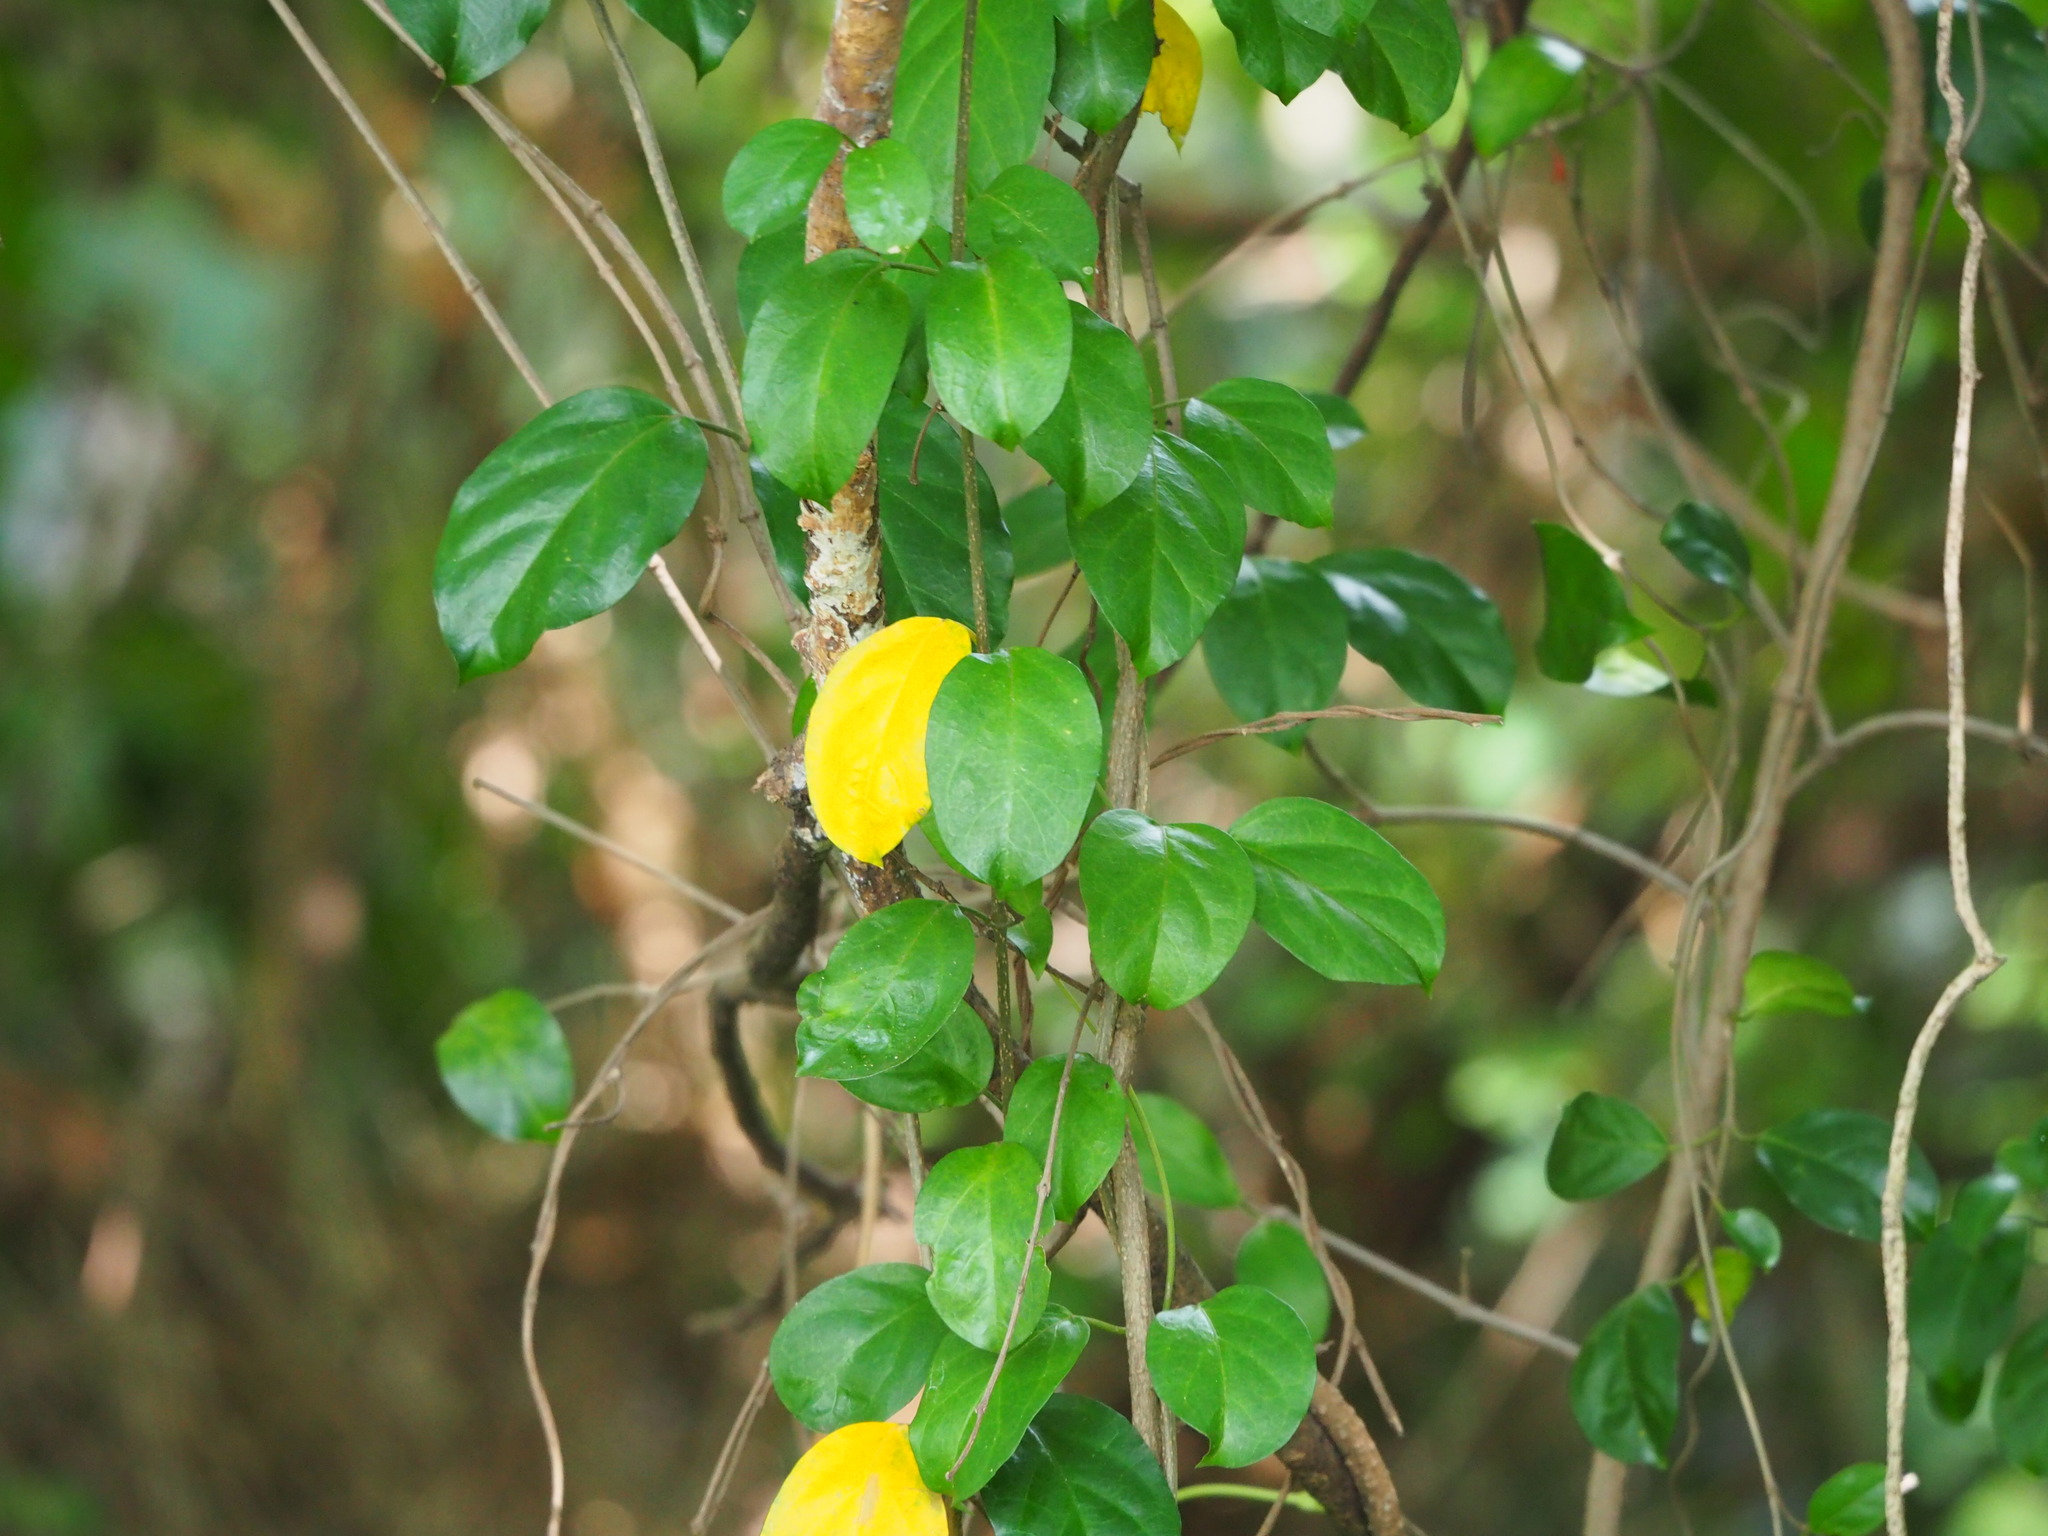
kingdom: Plantae
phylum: Tracheophyta
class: Magnoliopsida
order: Gentianales
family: Apocynaceae
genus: Gymnema
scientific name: Gymnema sylvestre
